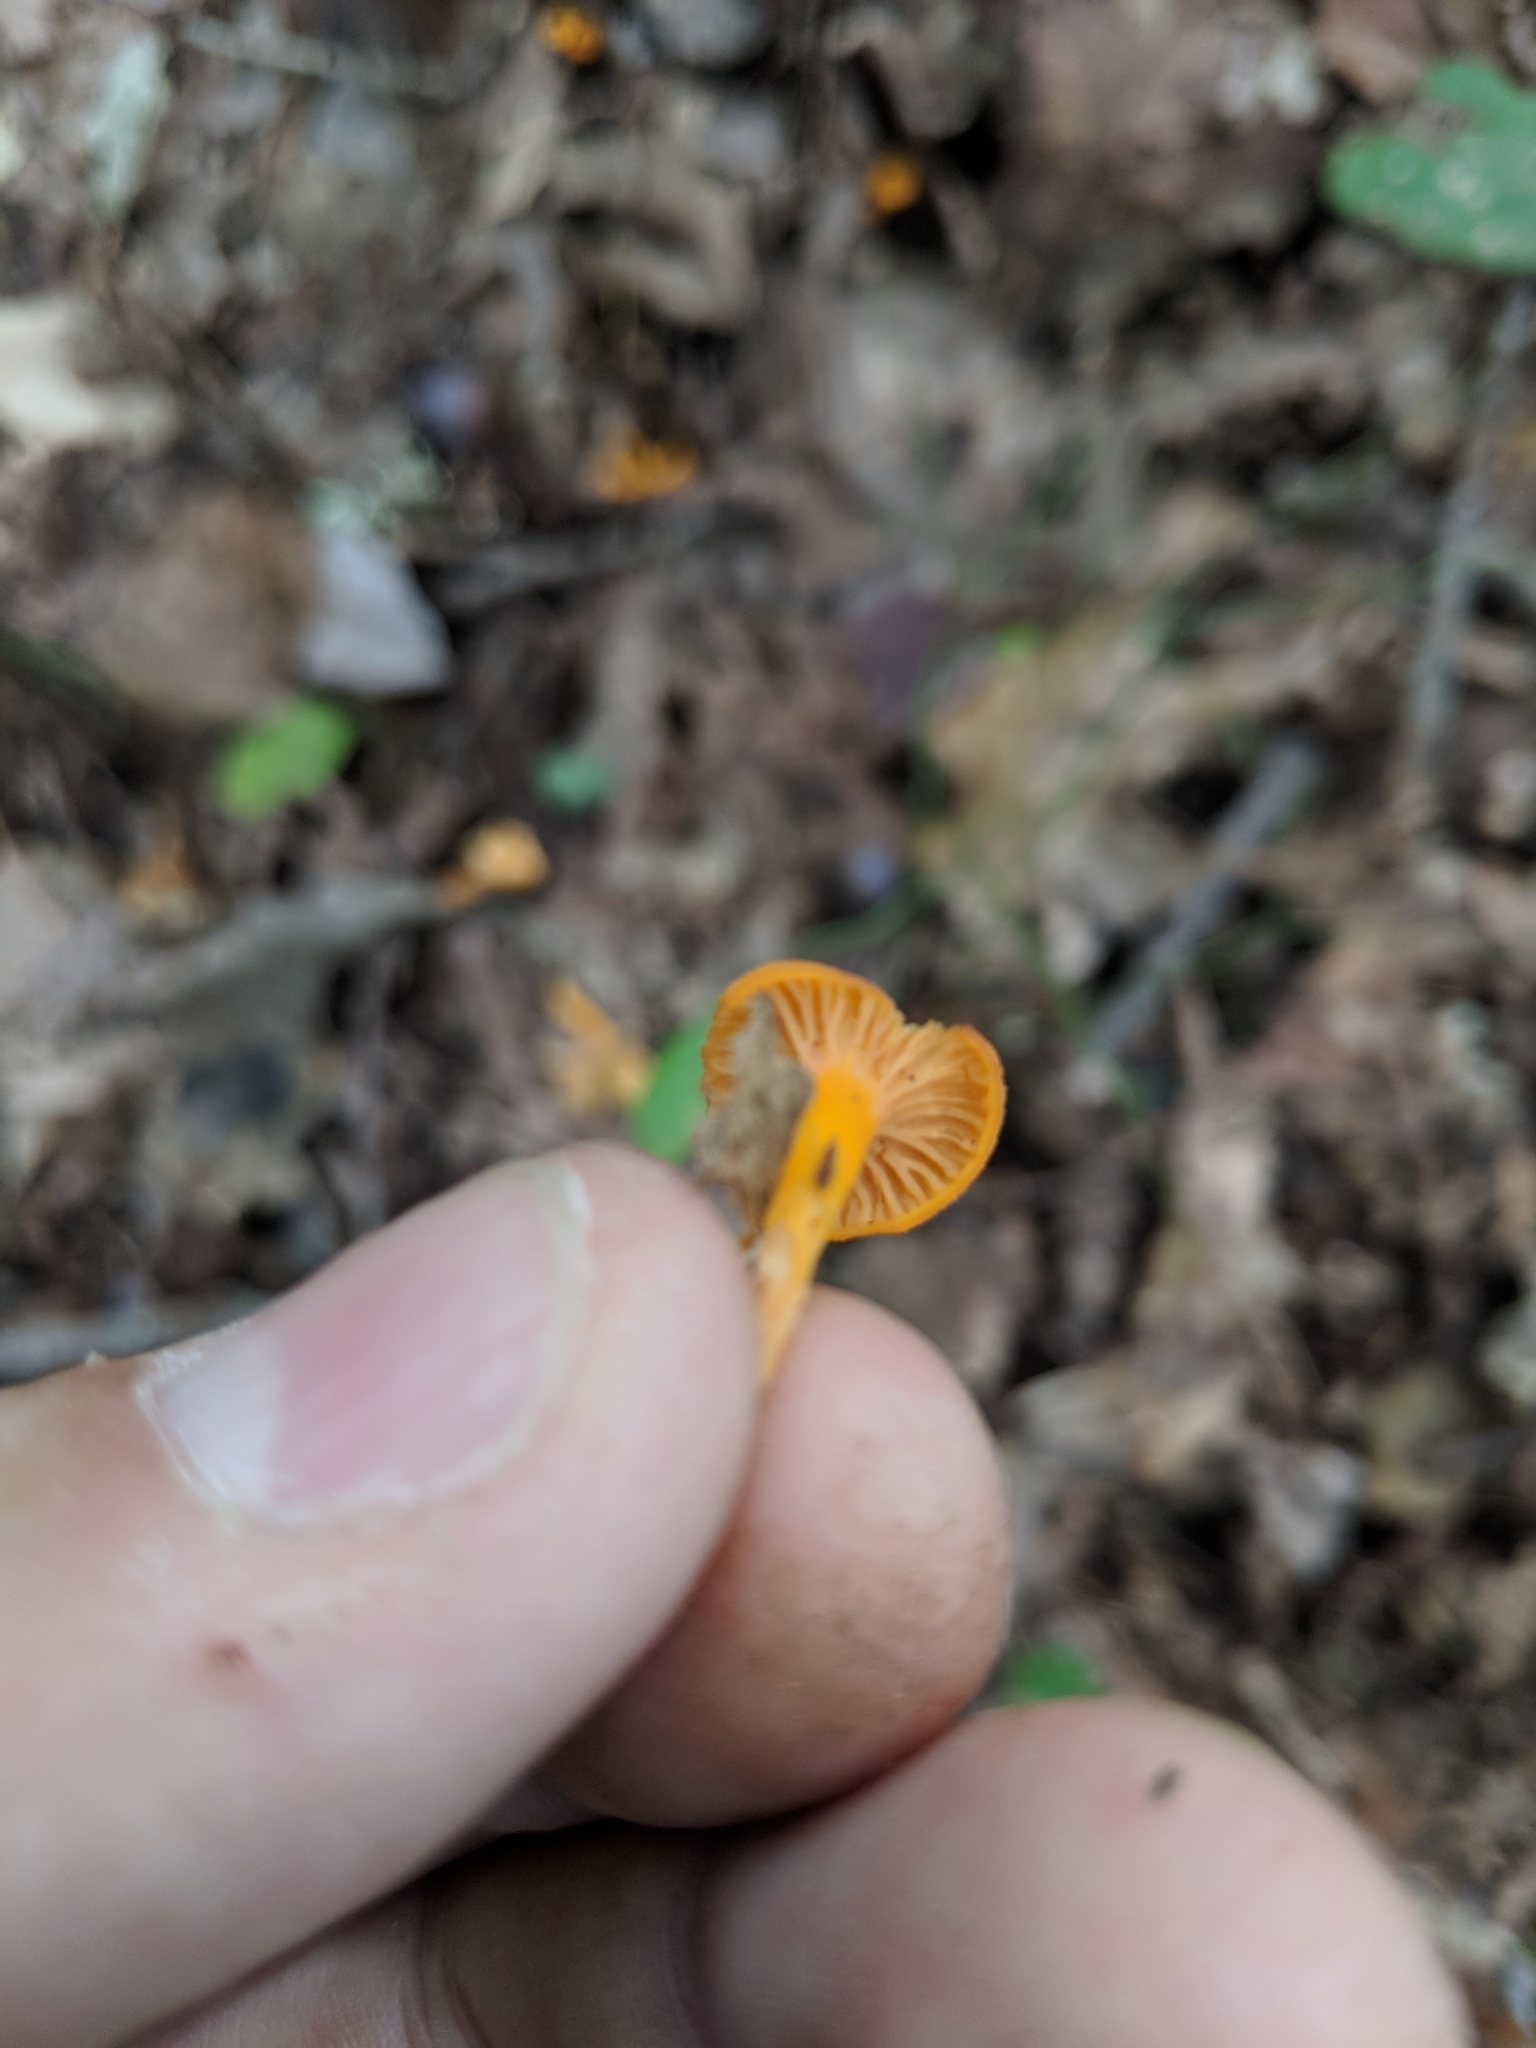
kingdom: Fungi
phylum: Basidiomycota
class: Agaricomycetes
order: Cantharellales
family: Hydnaceae
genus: Craterellus
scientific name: Craterellus tubaeformis
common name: Yellowfoot
